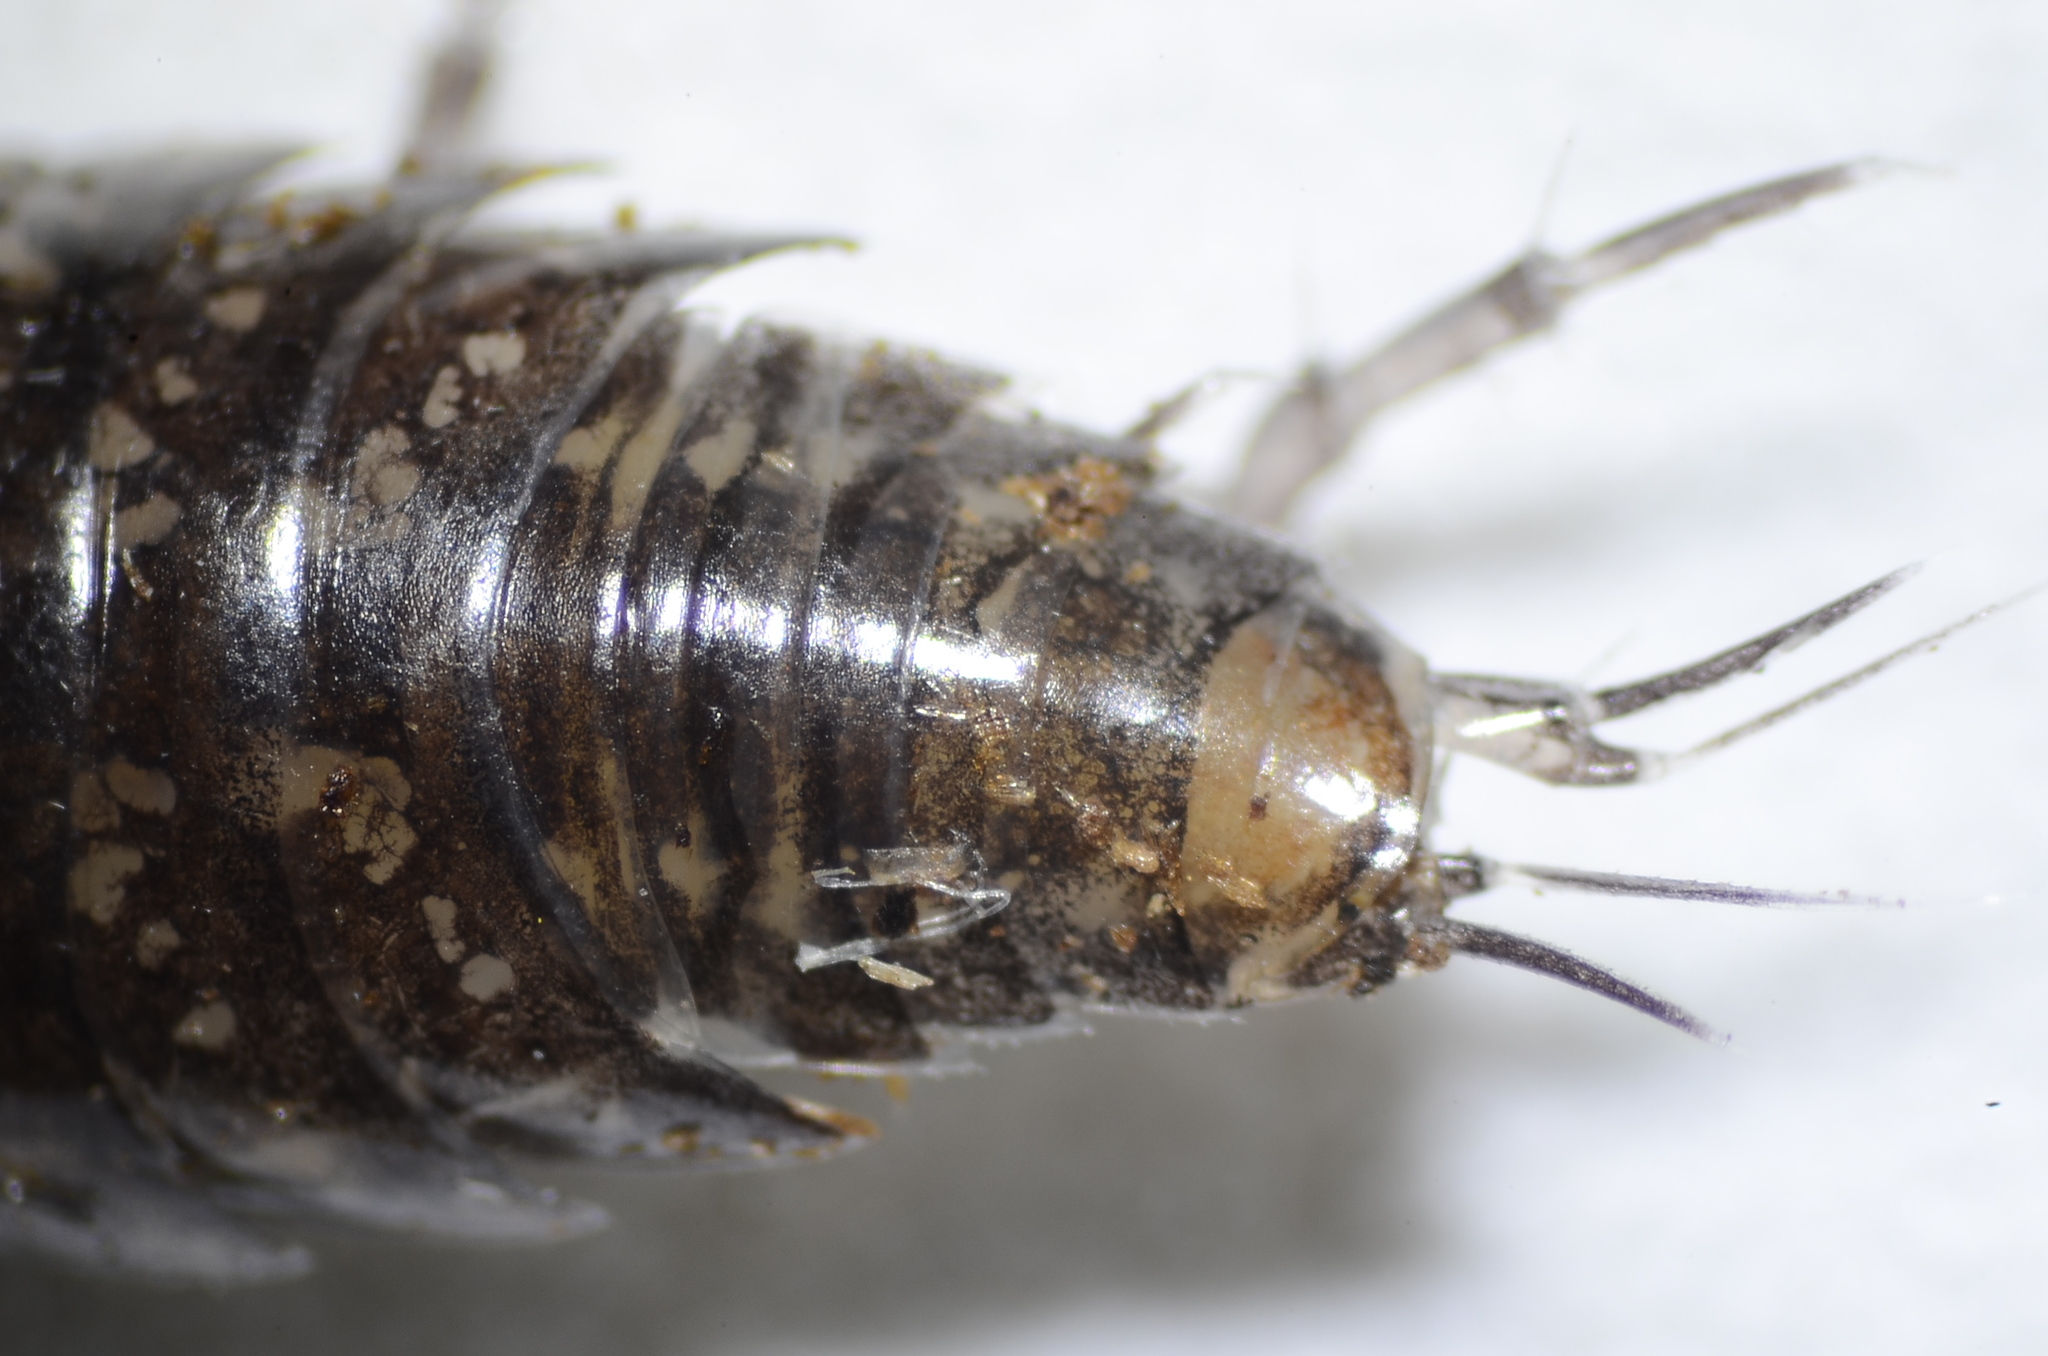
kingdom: Animalia
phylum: Arthropoda
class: Malacostraca
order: Isopoda
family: Ligiidae
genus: Ligidium
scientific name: Ligidium gracile
